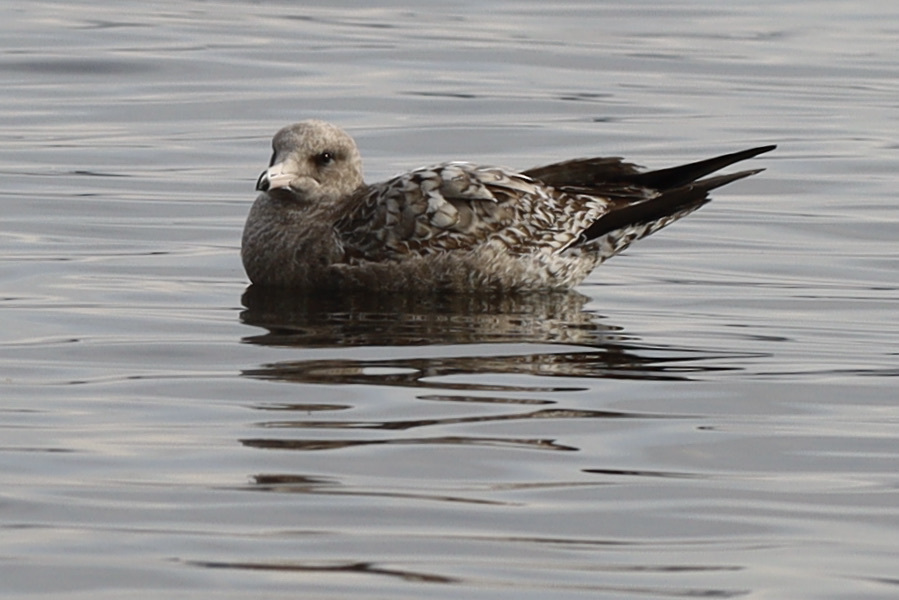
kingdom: Animalia
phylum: Chordata
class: Aves
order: Charadriiformes
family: Laridae
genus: Larus
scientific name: Larus californicus
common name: California gull
